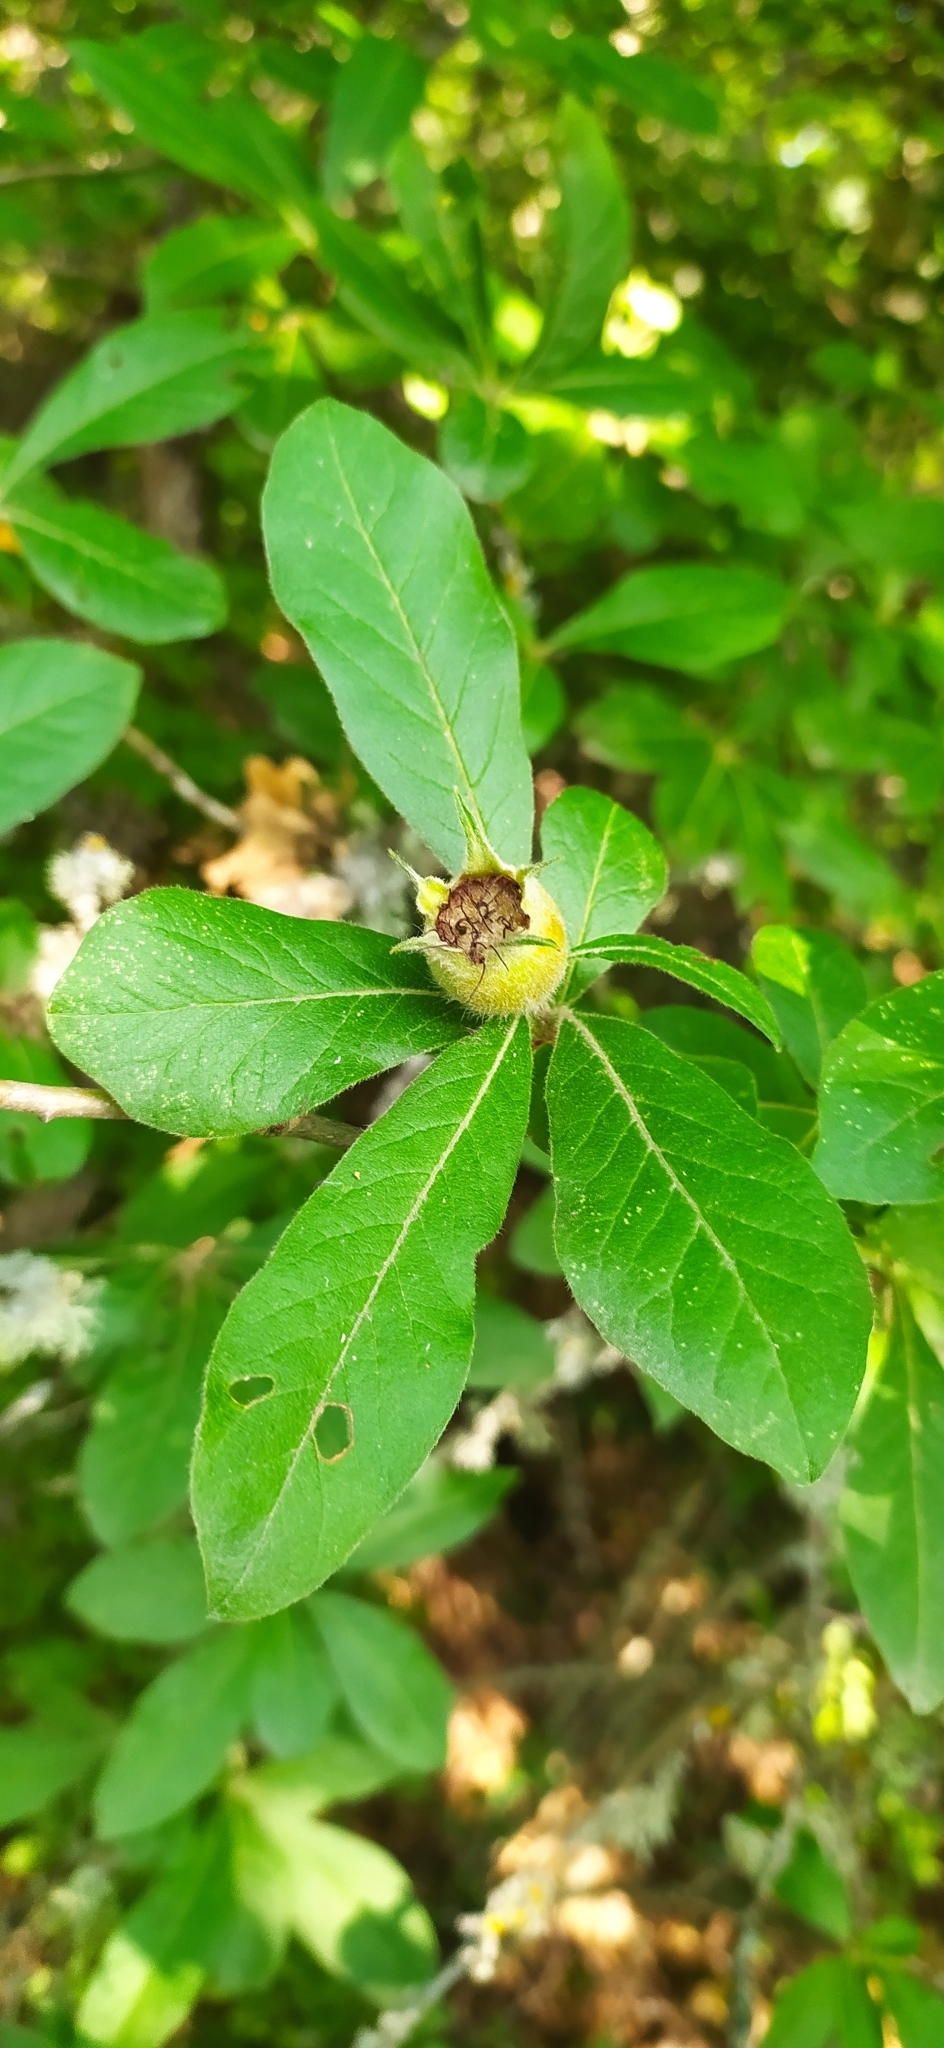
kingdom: Plantae
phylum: Tracheophyta
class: Magnoliopsida
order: Rosales
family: Rosaceae
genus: Mespilus
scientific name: Mespilus germanica
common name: Medlar
